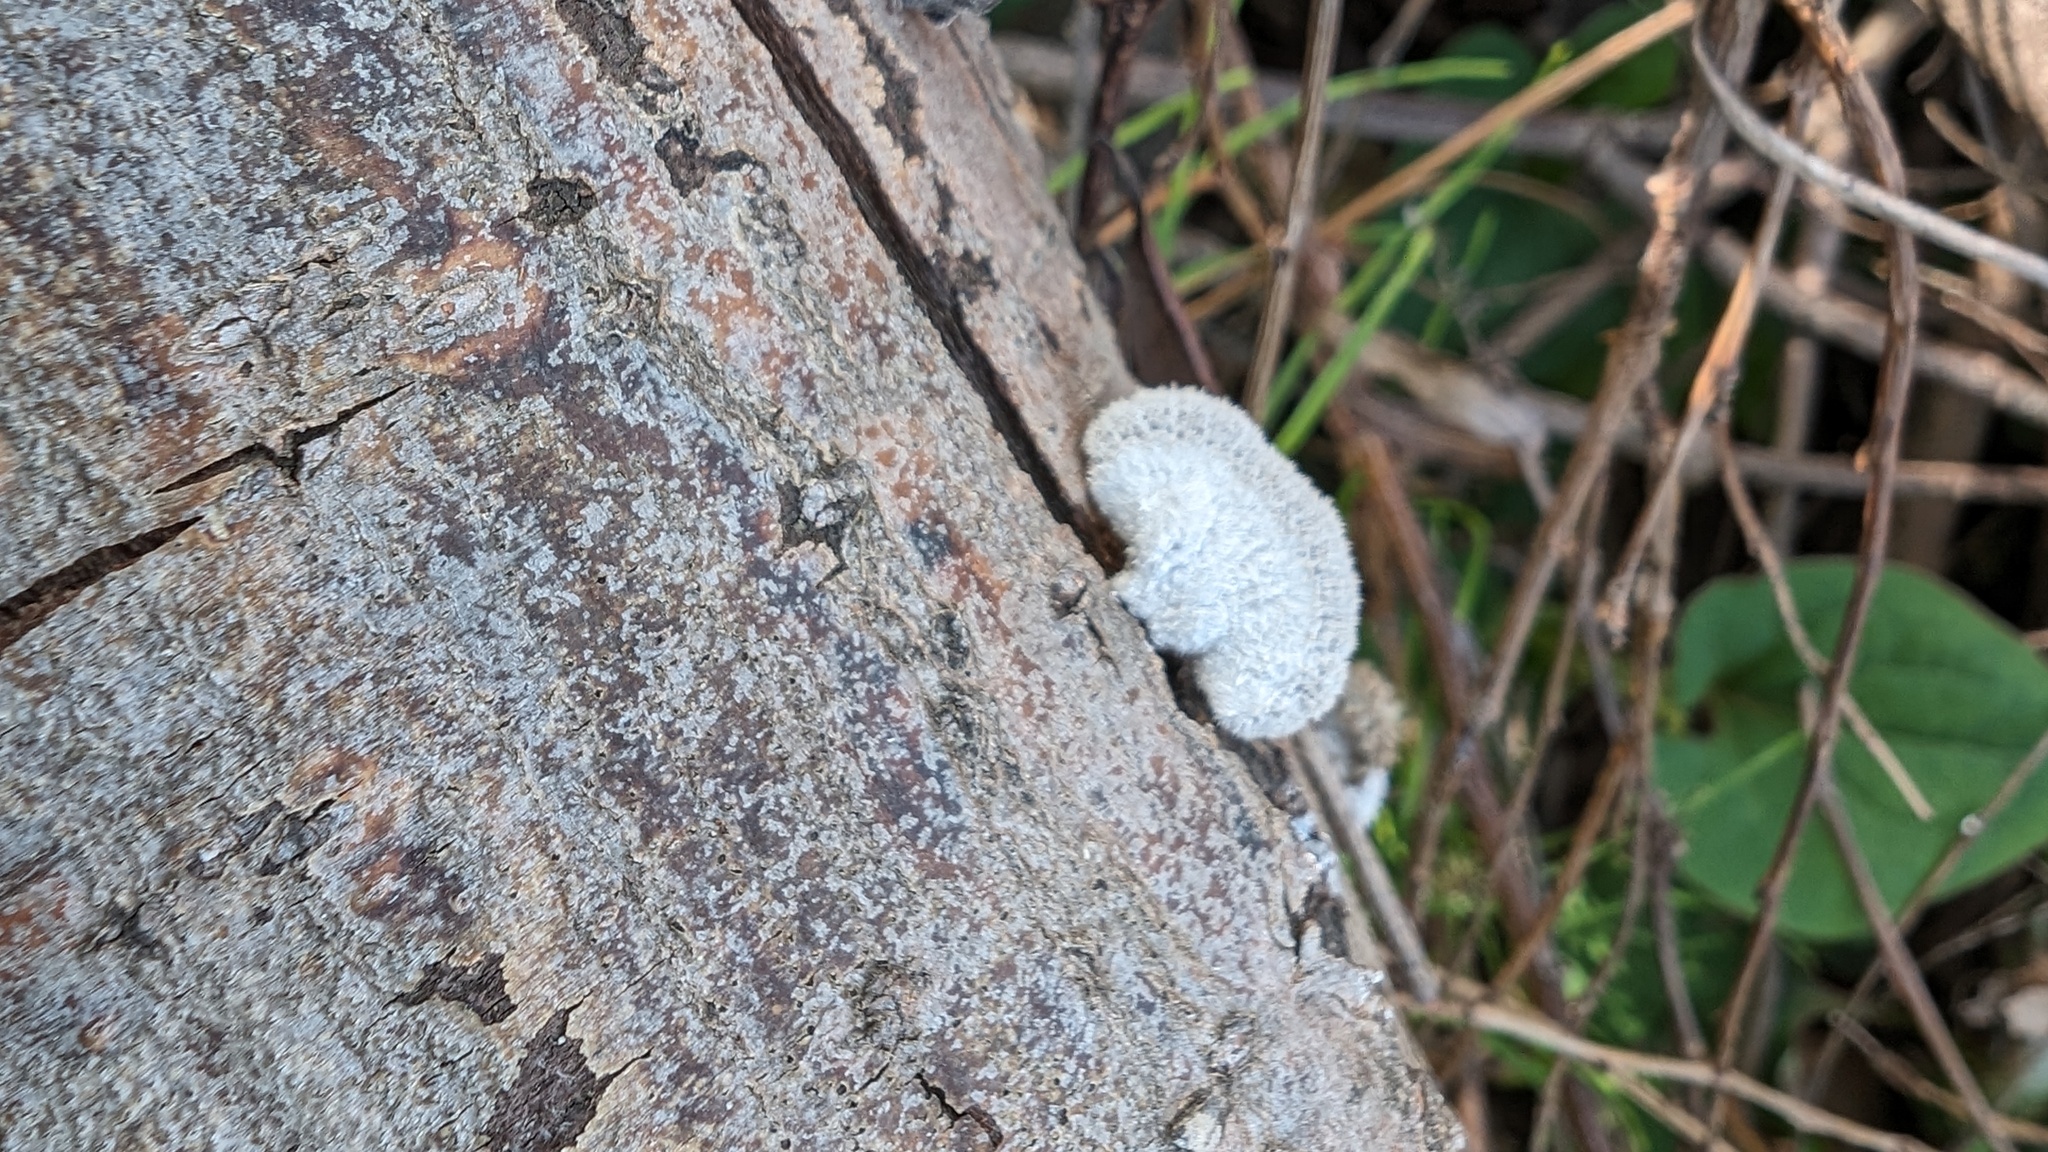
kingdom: Fungi
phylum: Basidiomycota
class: Agaricomycetes
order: Agaricales
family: Schizophyllaceae
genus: Schizophyllum
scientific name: Schizophyllum commune
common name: Common porecrust
